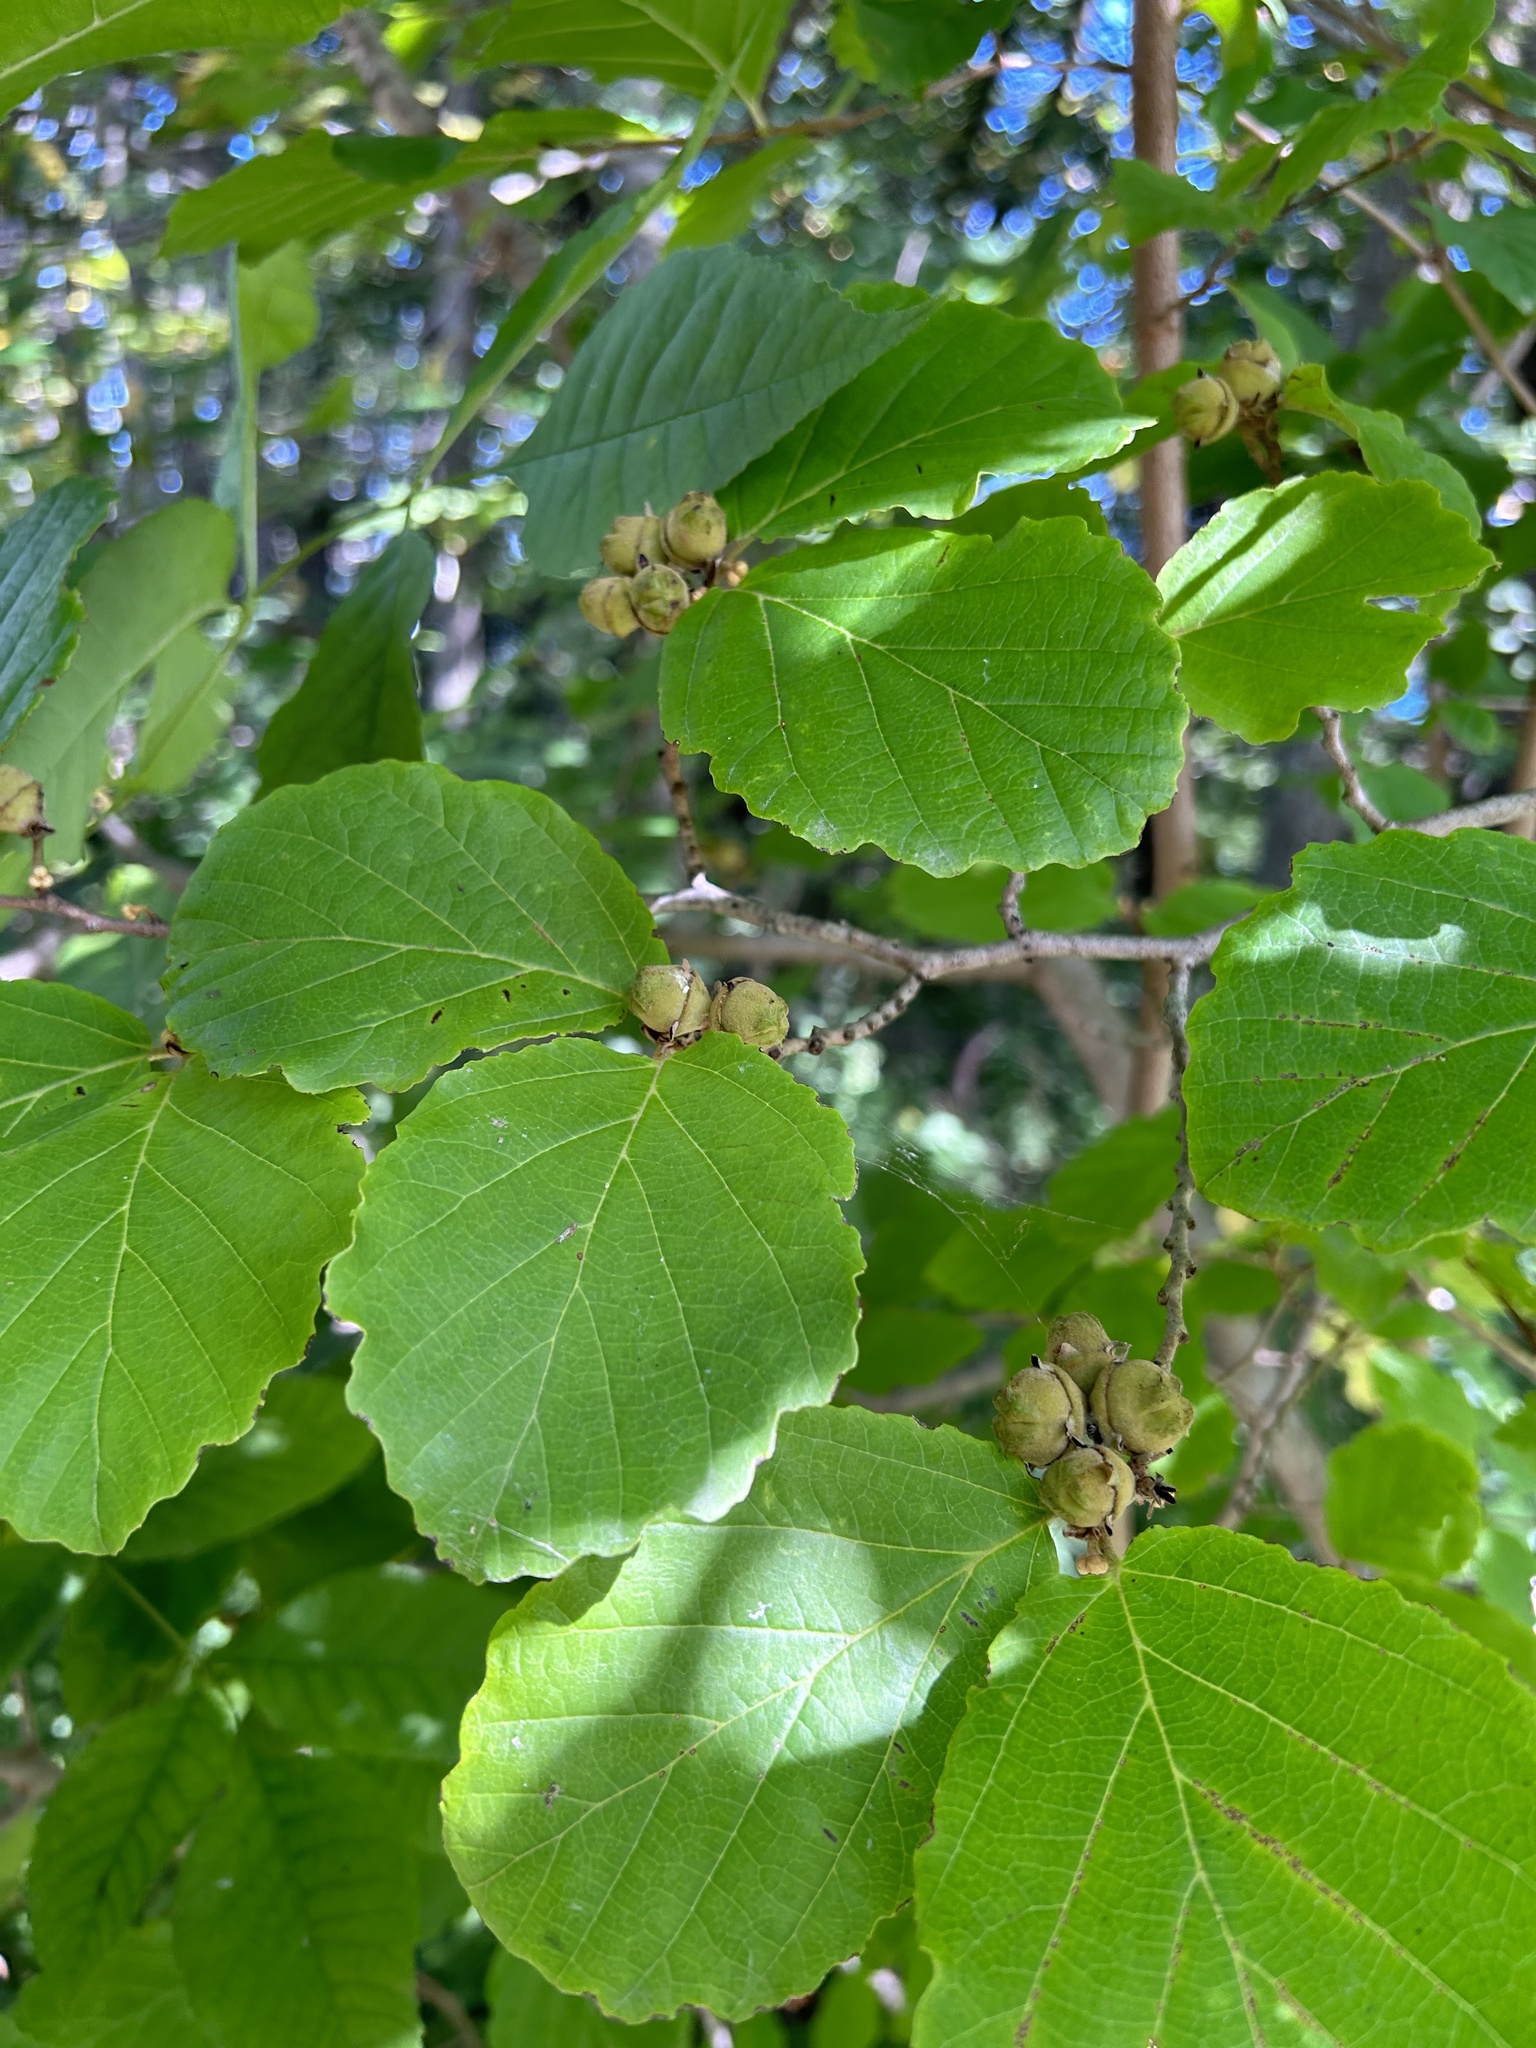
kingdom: Plantae
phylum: Tracheophyta
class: Magnoliopsida
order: Saxifragales
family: Hamamelidaceae
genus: Hamamelis
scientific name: Hamamelis virginiana
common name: Witch-hazel
